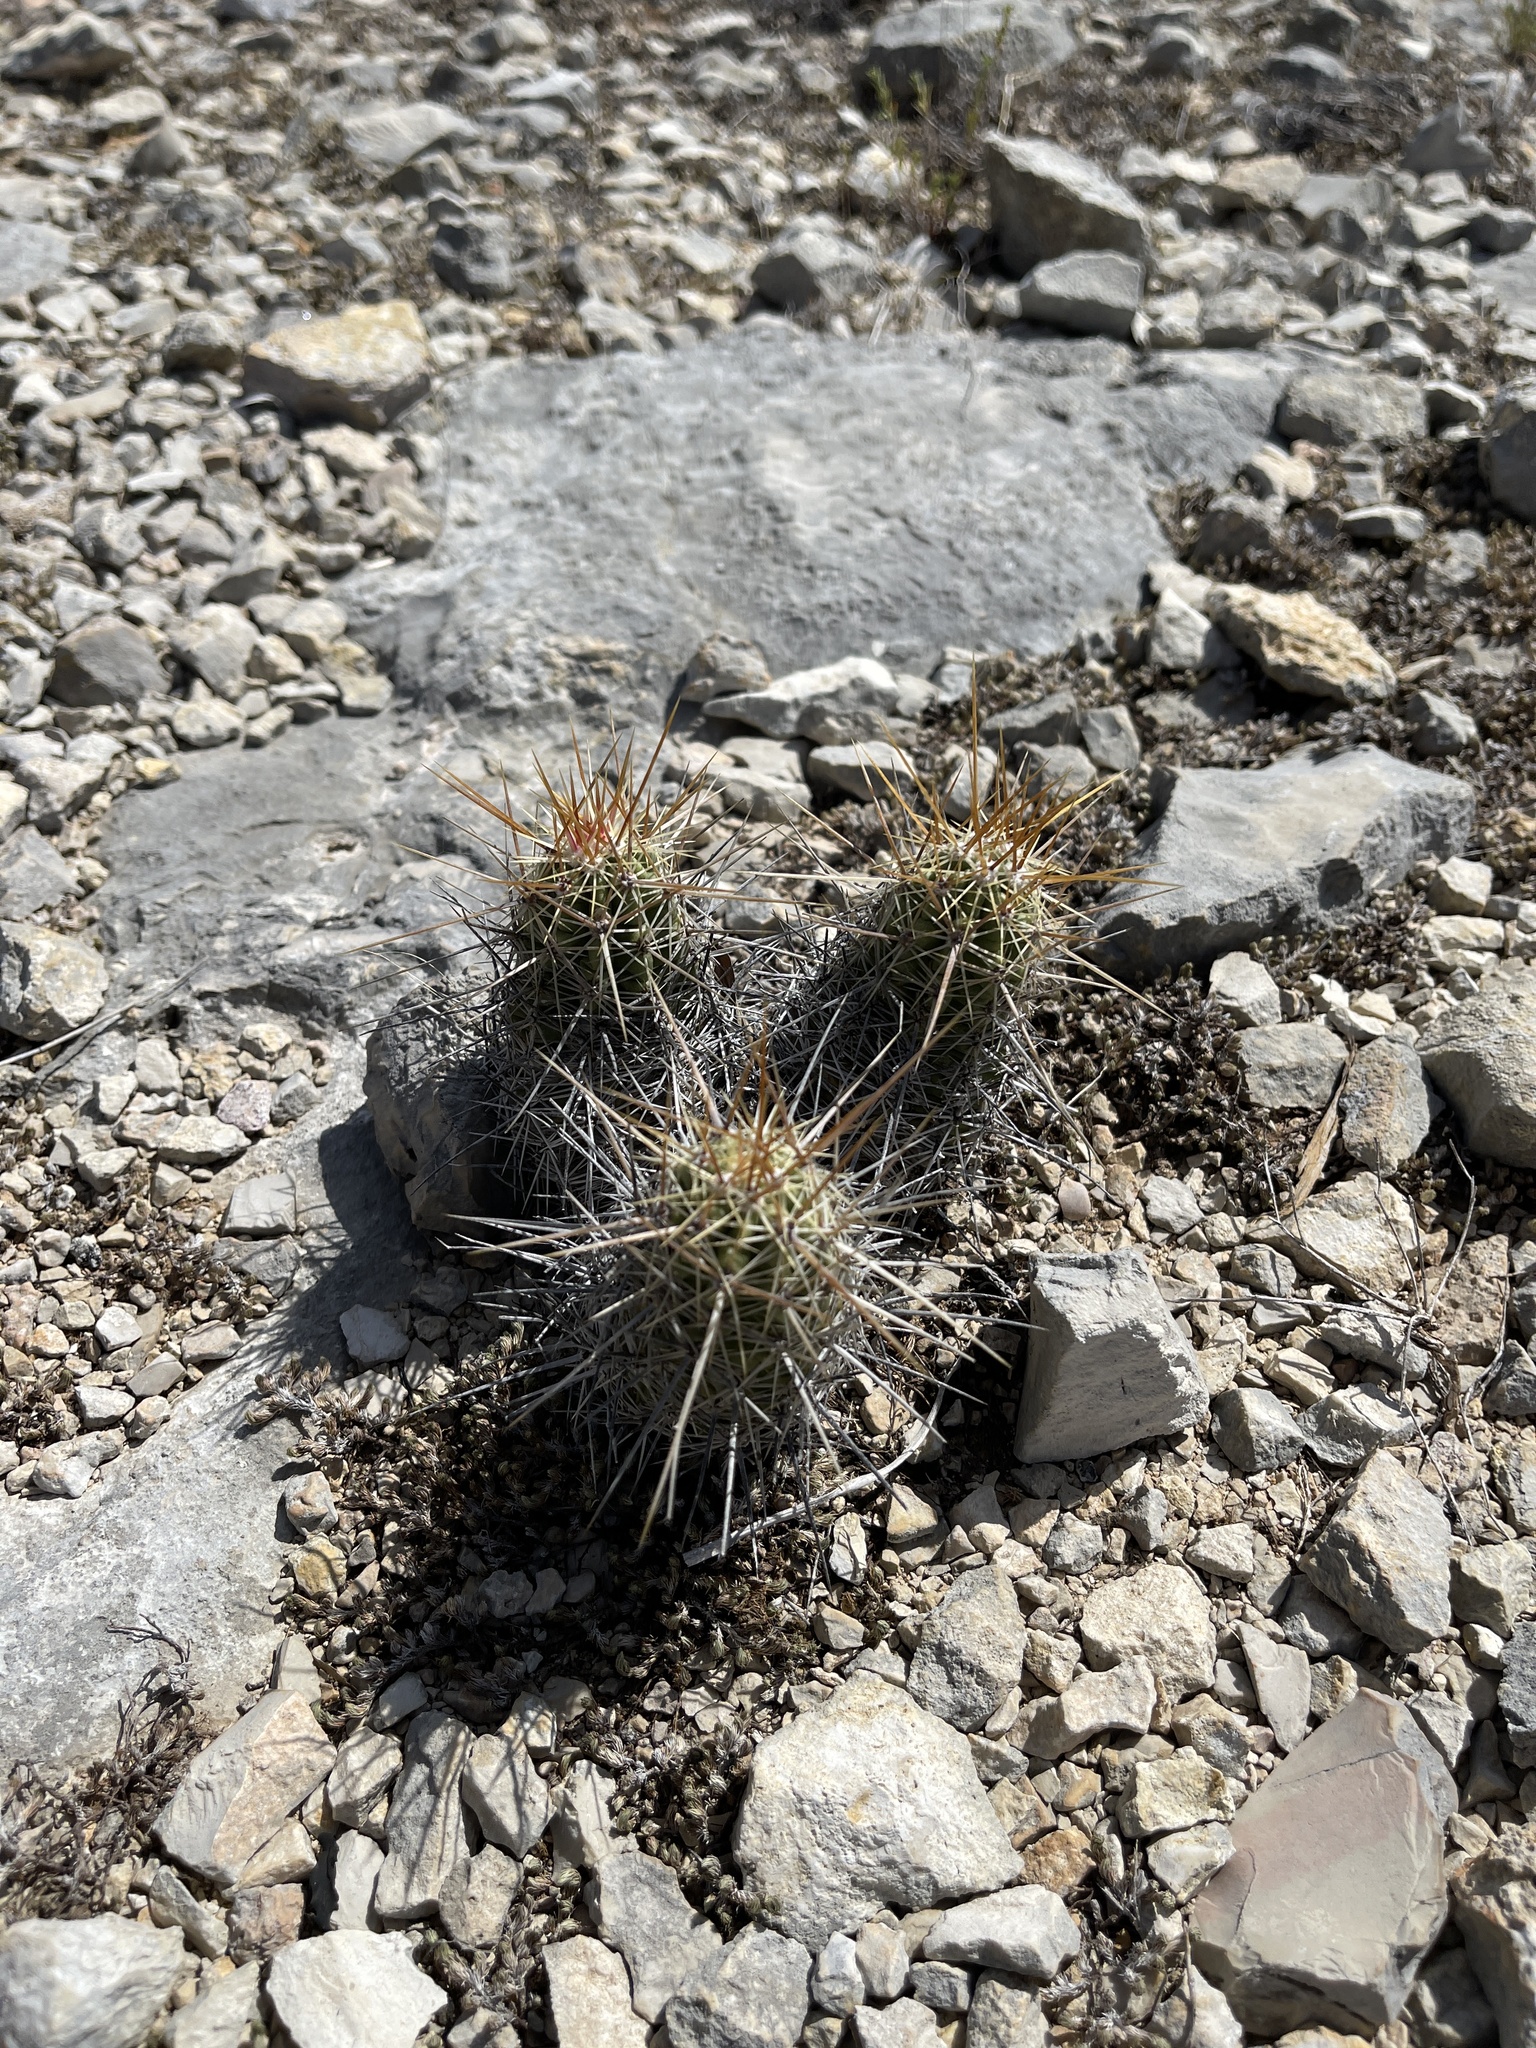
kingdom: Plantae
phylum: Tracheophyta
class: Magnoliopsida
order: Caryophyllales
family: Cactaceae
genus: Echinocereus
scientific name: Echinocereus enneacanthus
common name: Pitaya
